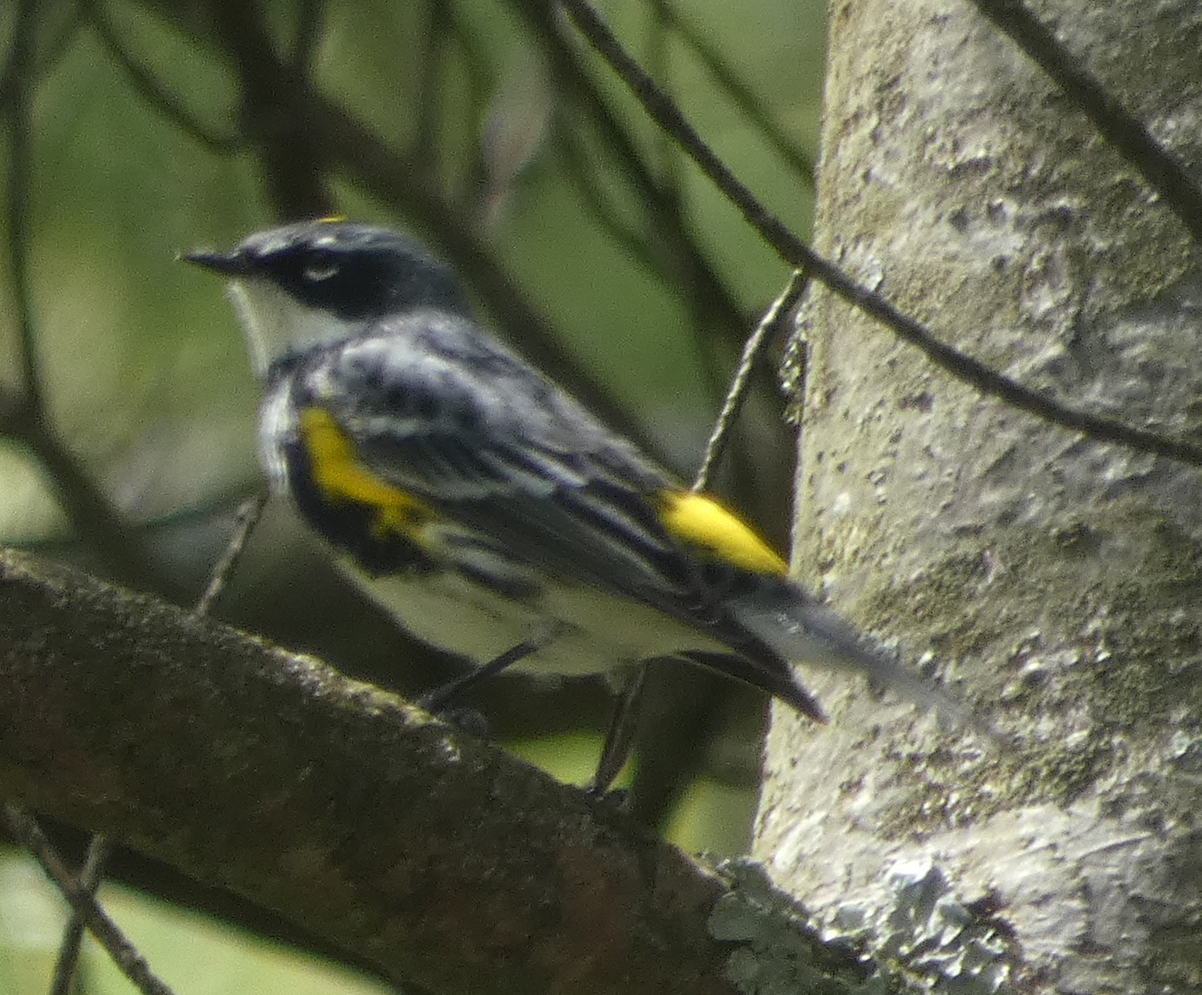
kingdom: Animalia
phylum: Chordata
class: Aves
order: Passeriformes
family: Parulidae
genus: Setophaga
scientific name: Setophaga coronata
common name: Myrtle warbler
